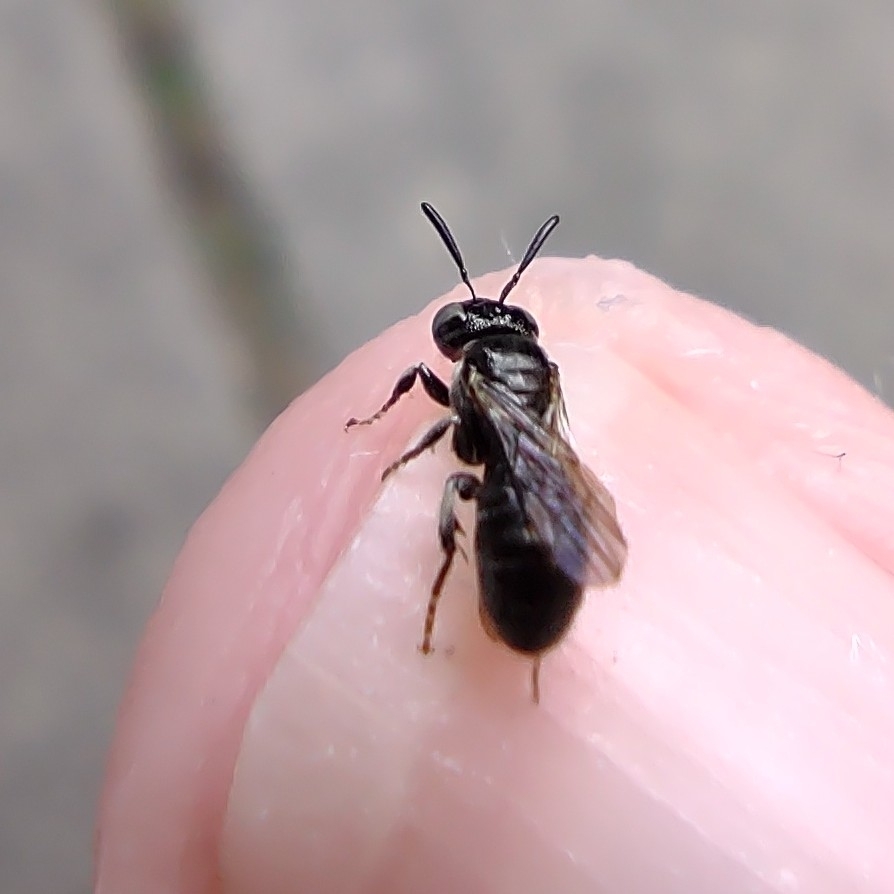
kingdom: Animalia
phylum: Arthropoda
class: Insecta
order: Hymenoptera
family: Apidae
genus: Ceratina
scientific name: Ceratina
